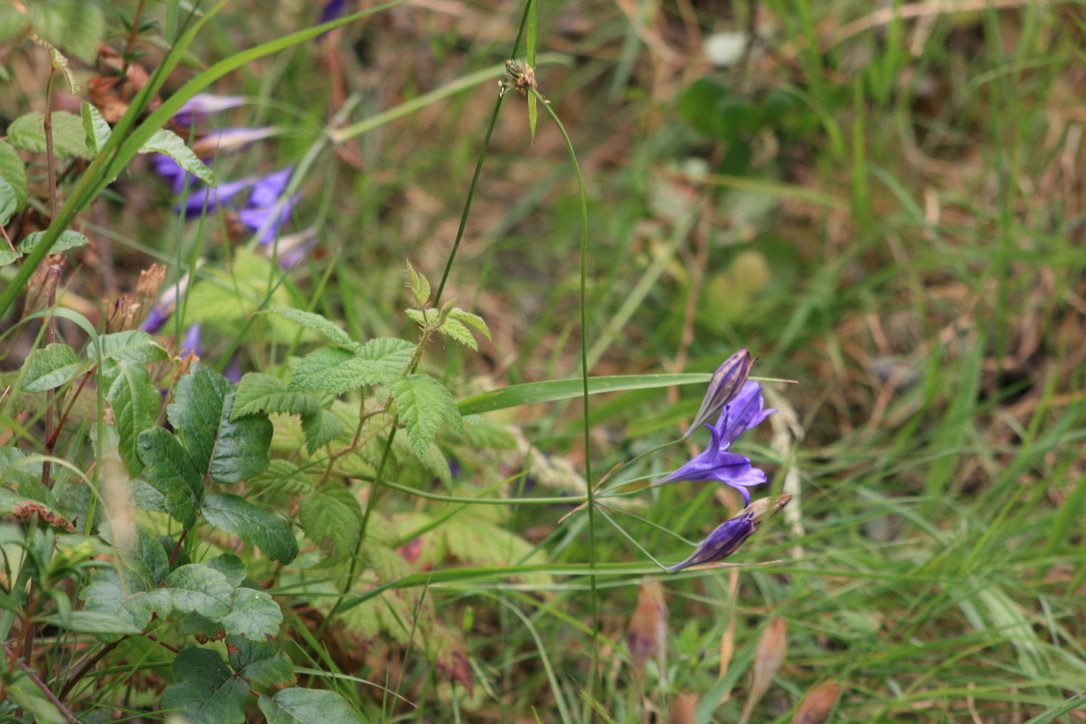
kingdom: Plantae
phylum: Tracheophyta
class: Liliopsida
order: Asparagales
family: Asparagaceae
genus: Triteleia
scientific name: Triteleia laxa
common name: Triplet-lily
